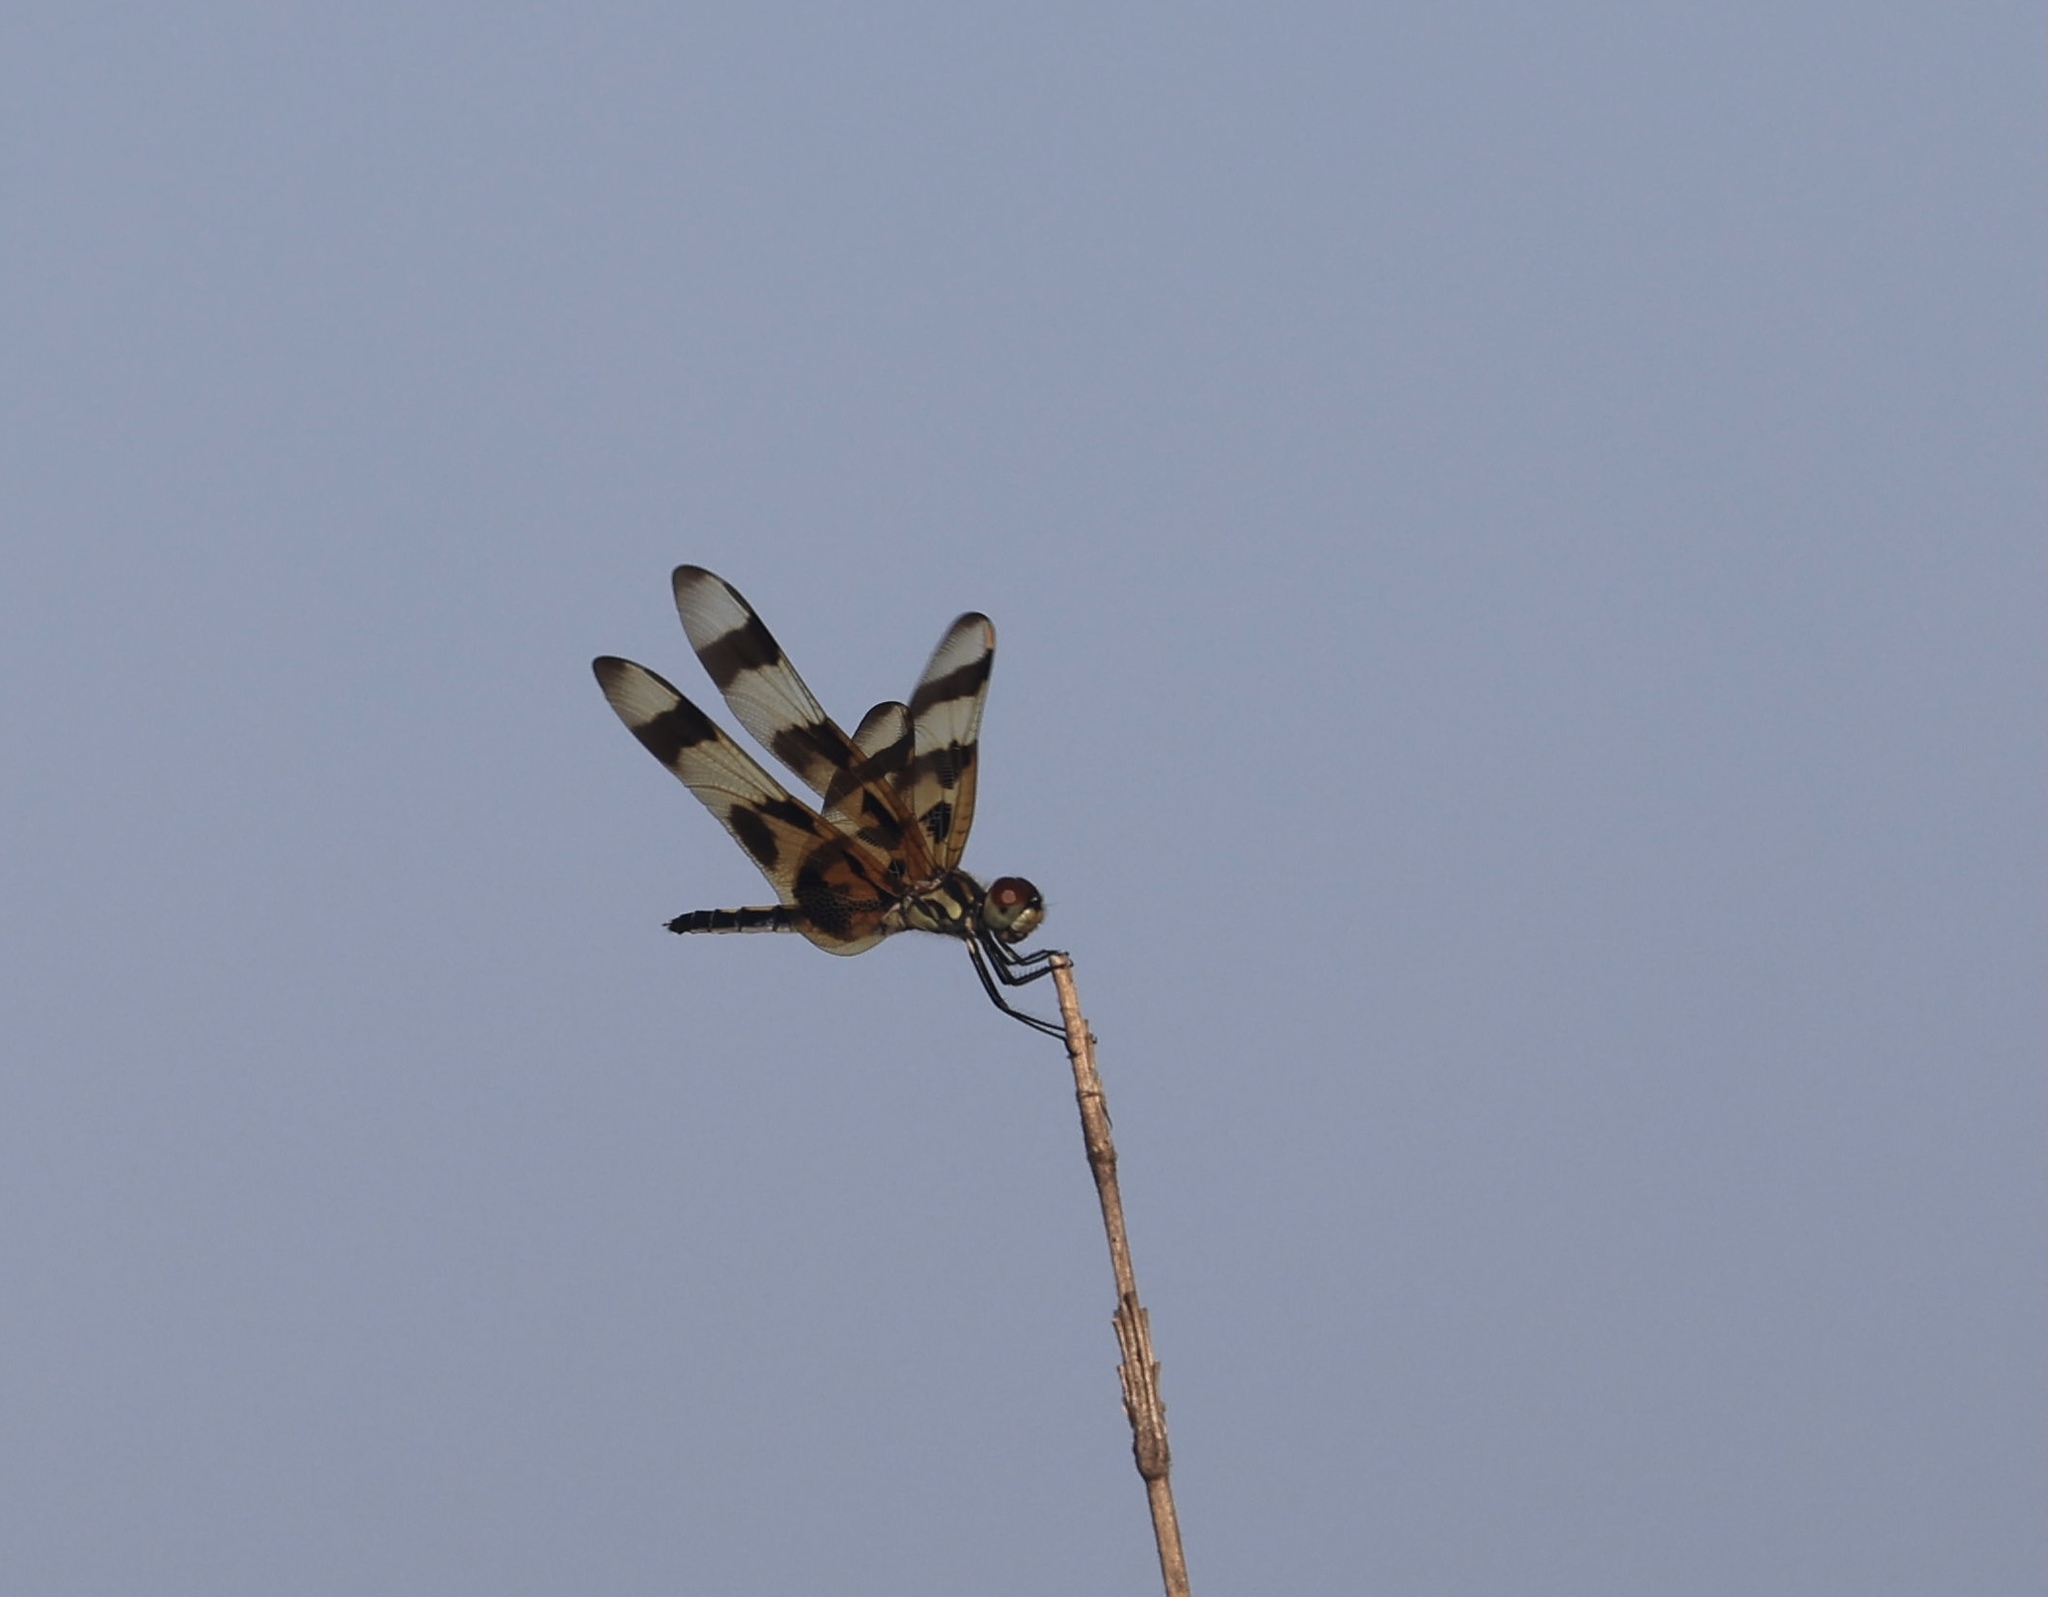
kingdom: Animalia
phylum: Arthropoda
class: Insecta
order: Odonata
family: Libellulidae
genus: Celithemis
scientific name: Celithemis eponina
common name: Halloween pennant
